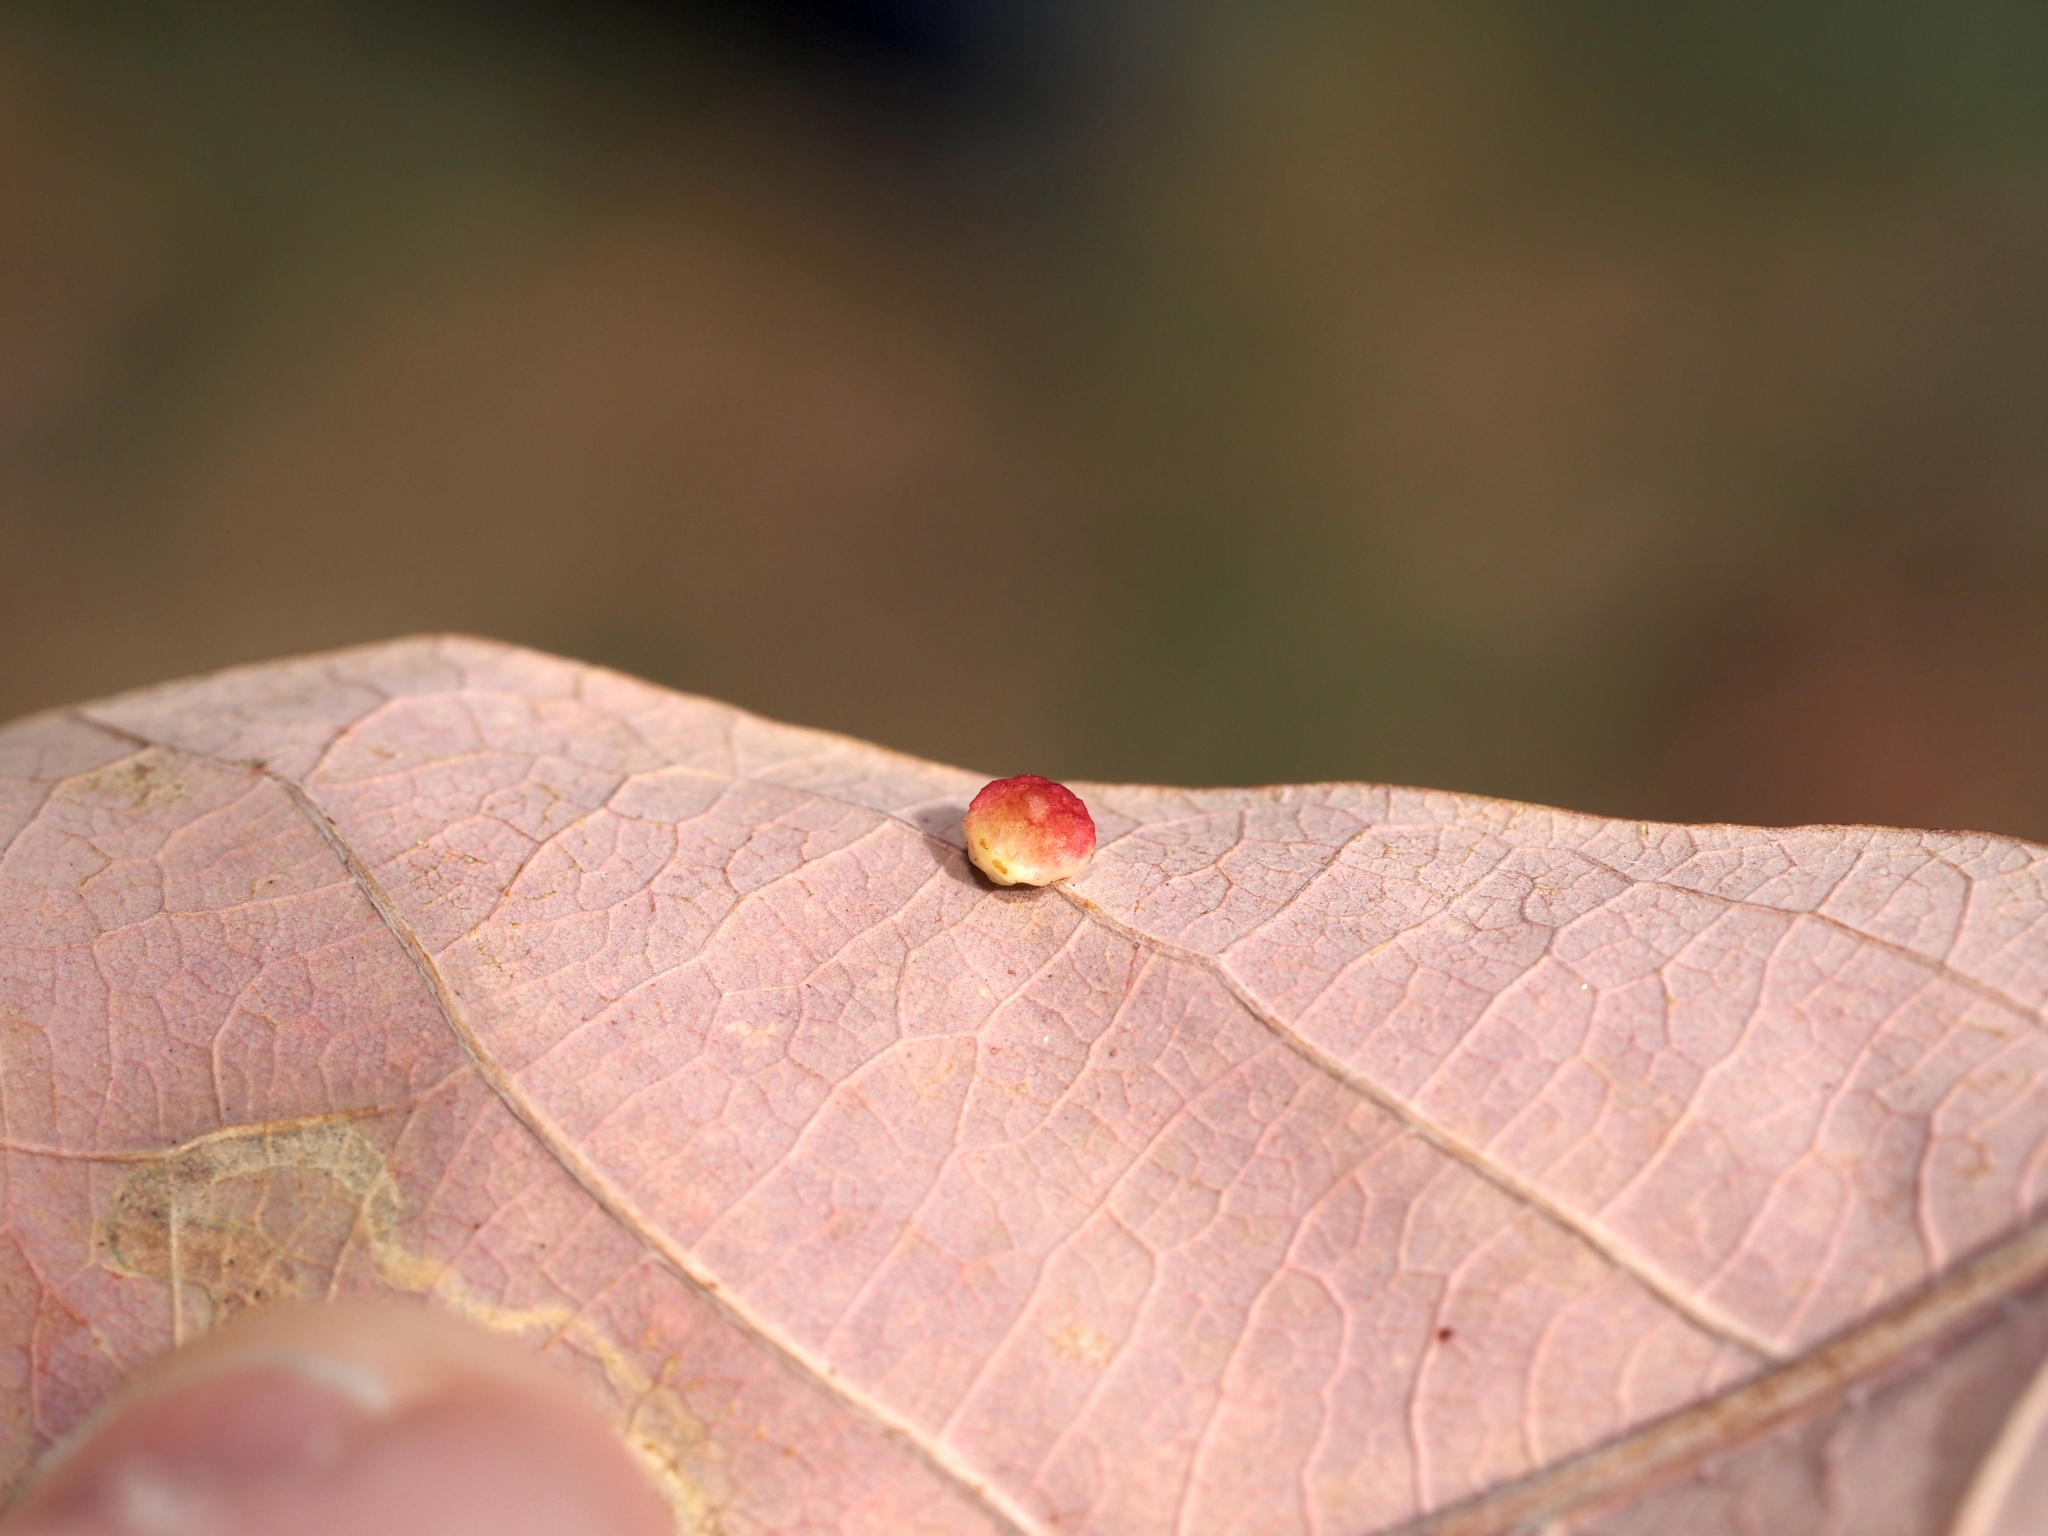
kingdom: Animalia
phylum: Arthropoda
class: Insecta
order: Hymenoptera
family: Cynipidae
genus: Phylloteras
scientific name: Phylloteras
